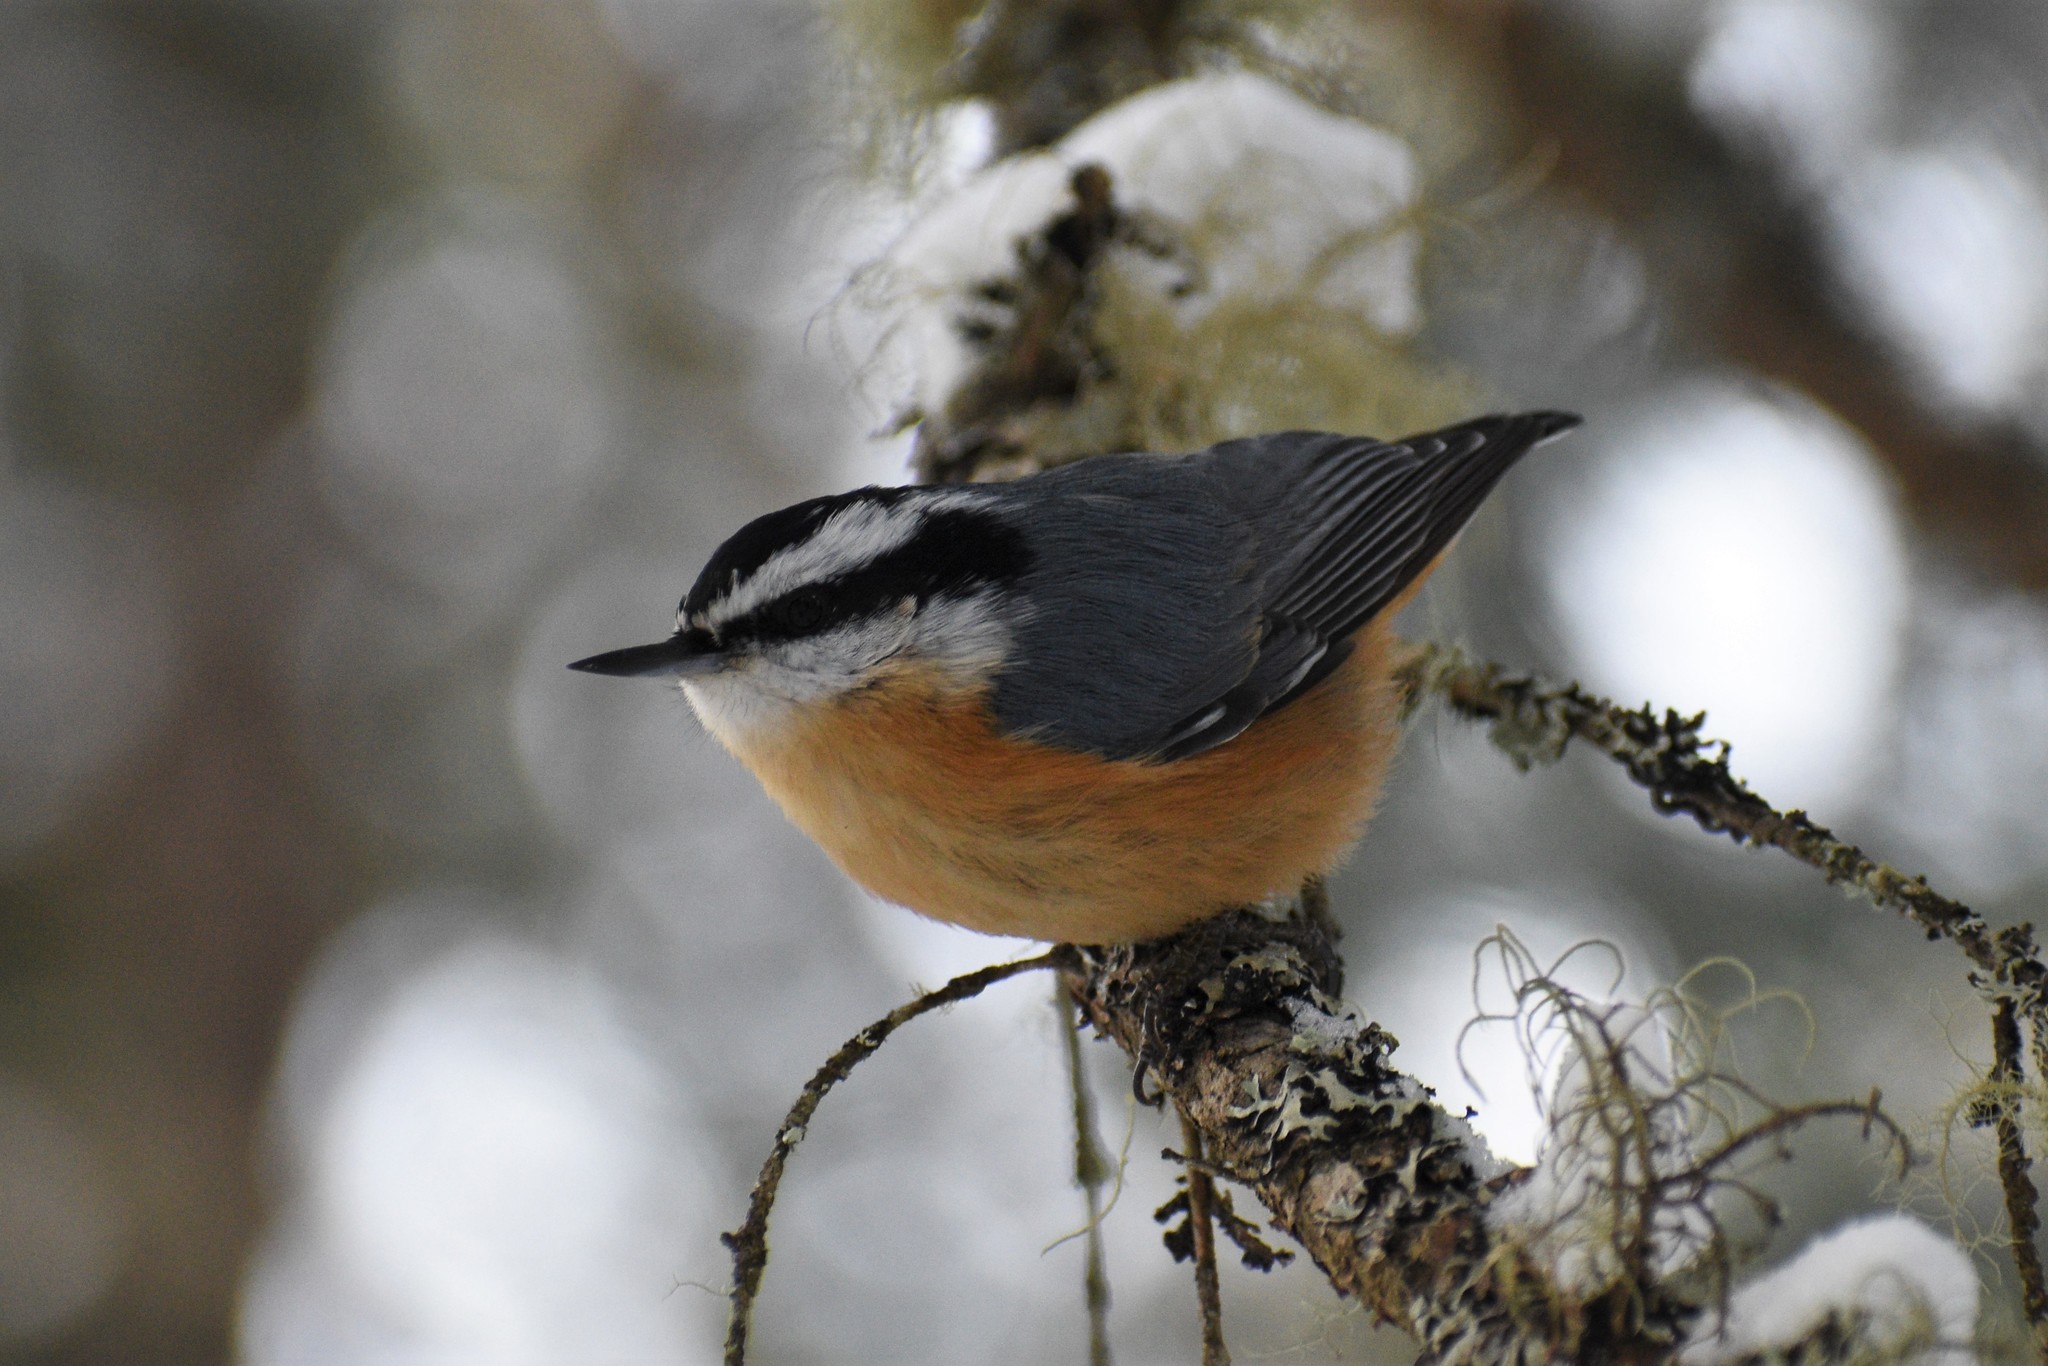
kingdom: Animalia
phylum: Chordata
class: Aves
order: Passeriformes
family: Sittidae
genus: Sitta
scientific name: Sitta canadensis
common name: Red-breasted nuthatch
